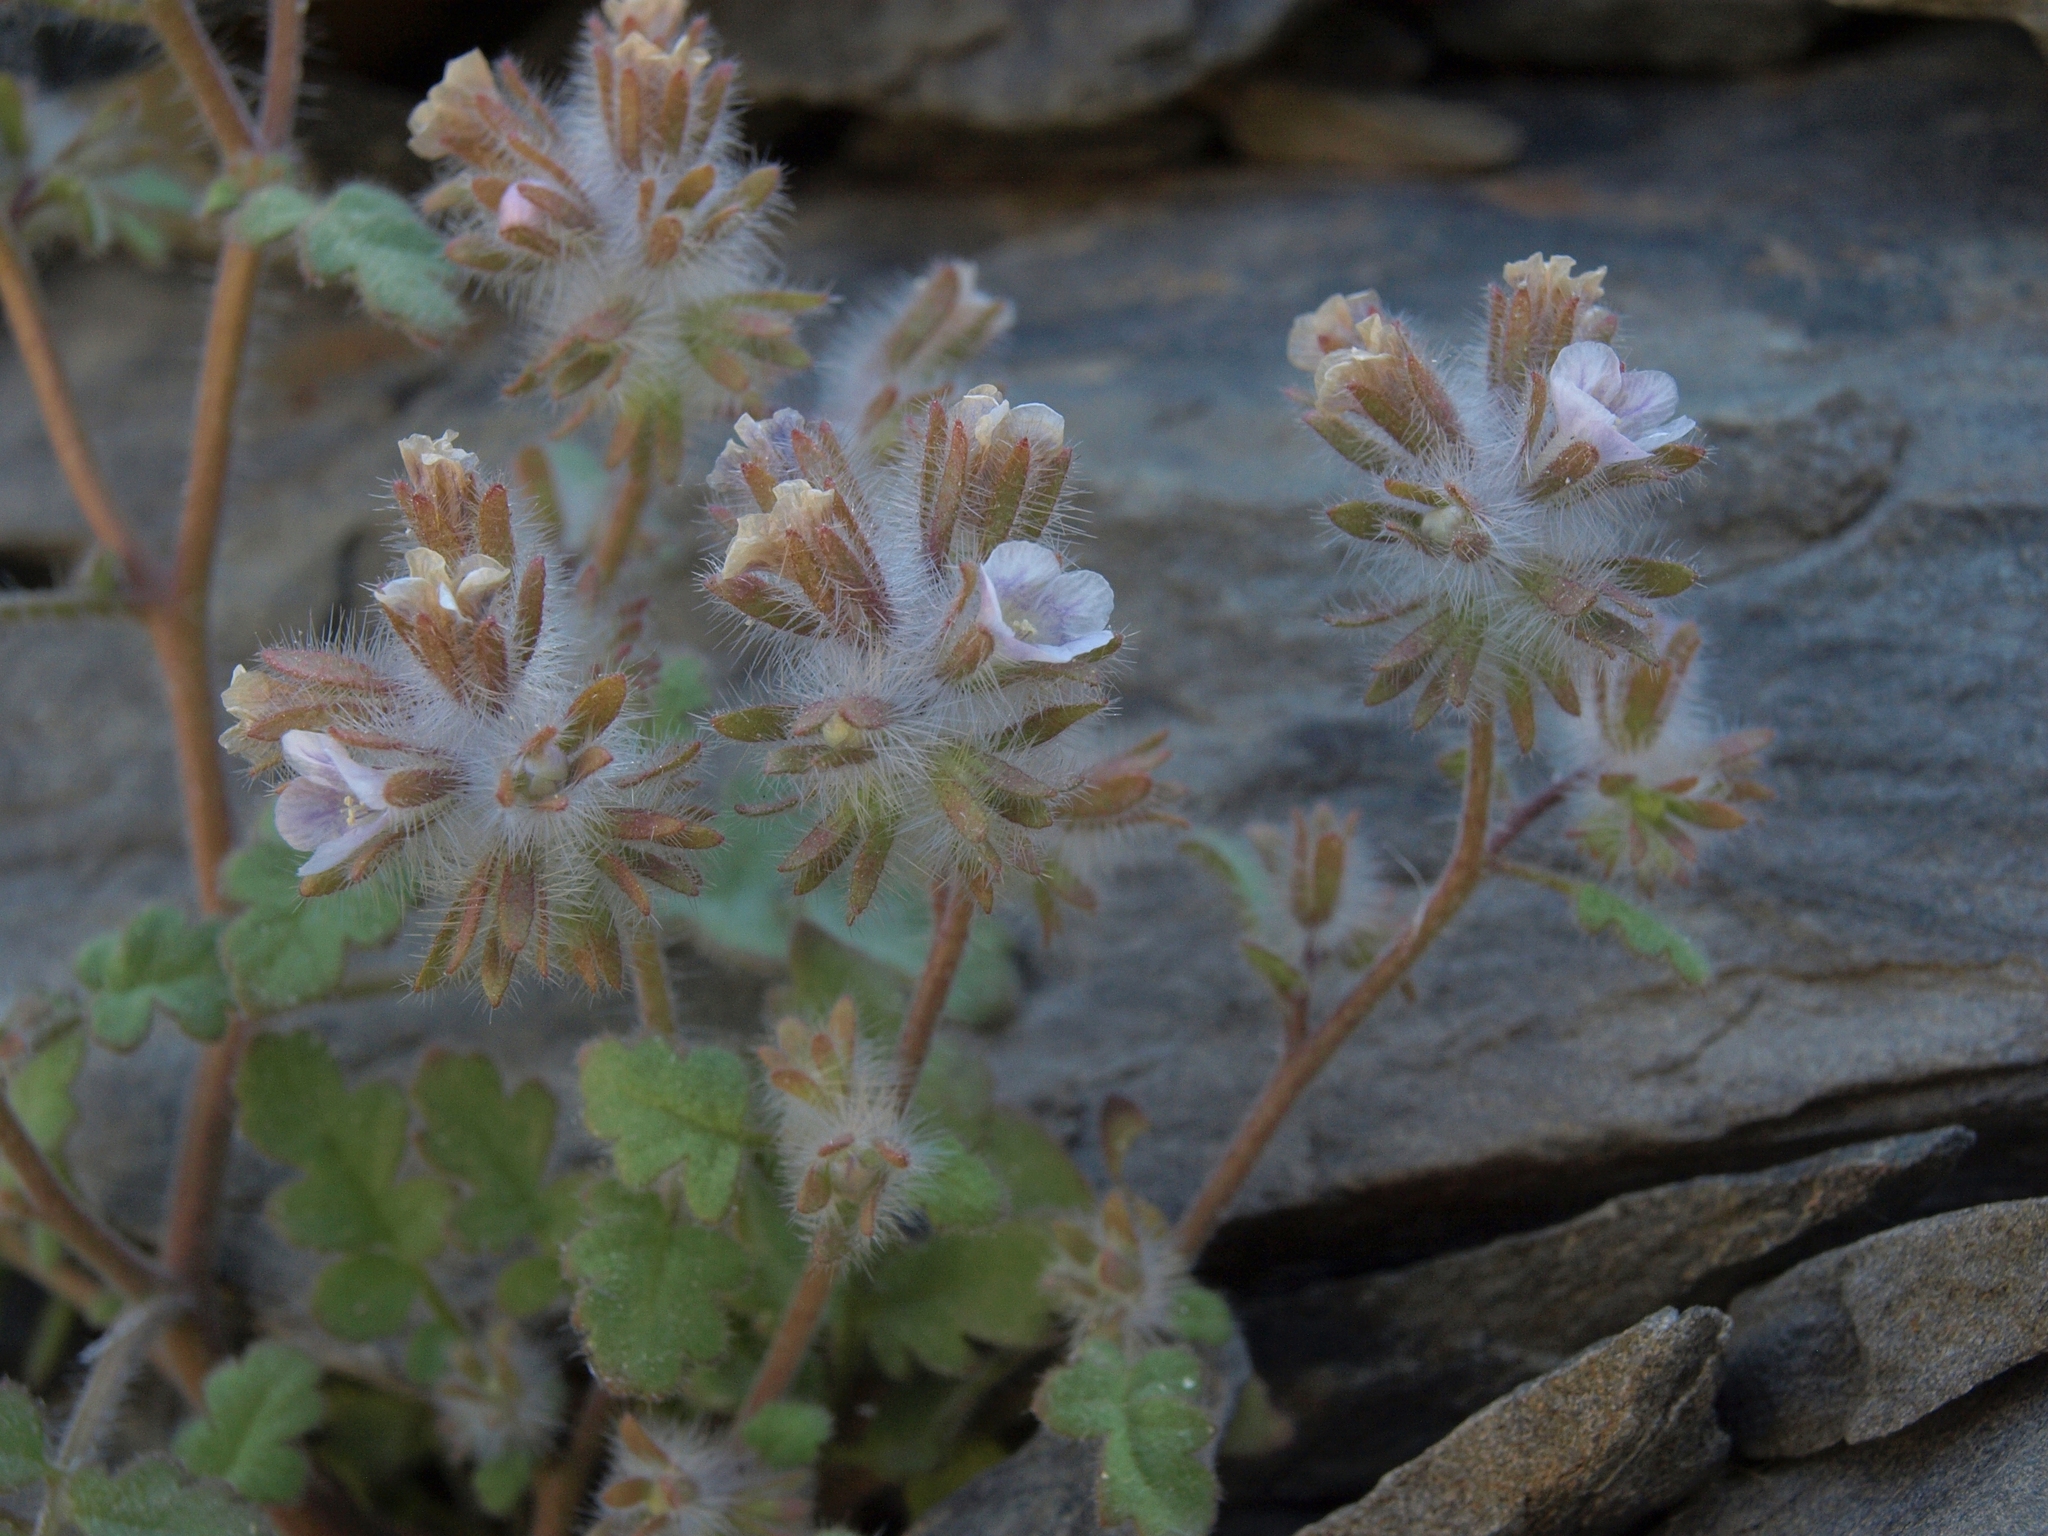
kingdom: Plantae
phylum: Tracheophyta
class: Magnoliopsida
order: Boraginales
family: Hydrophyllaceae
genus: Phacelia
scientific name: Phacelia cryptantha
